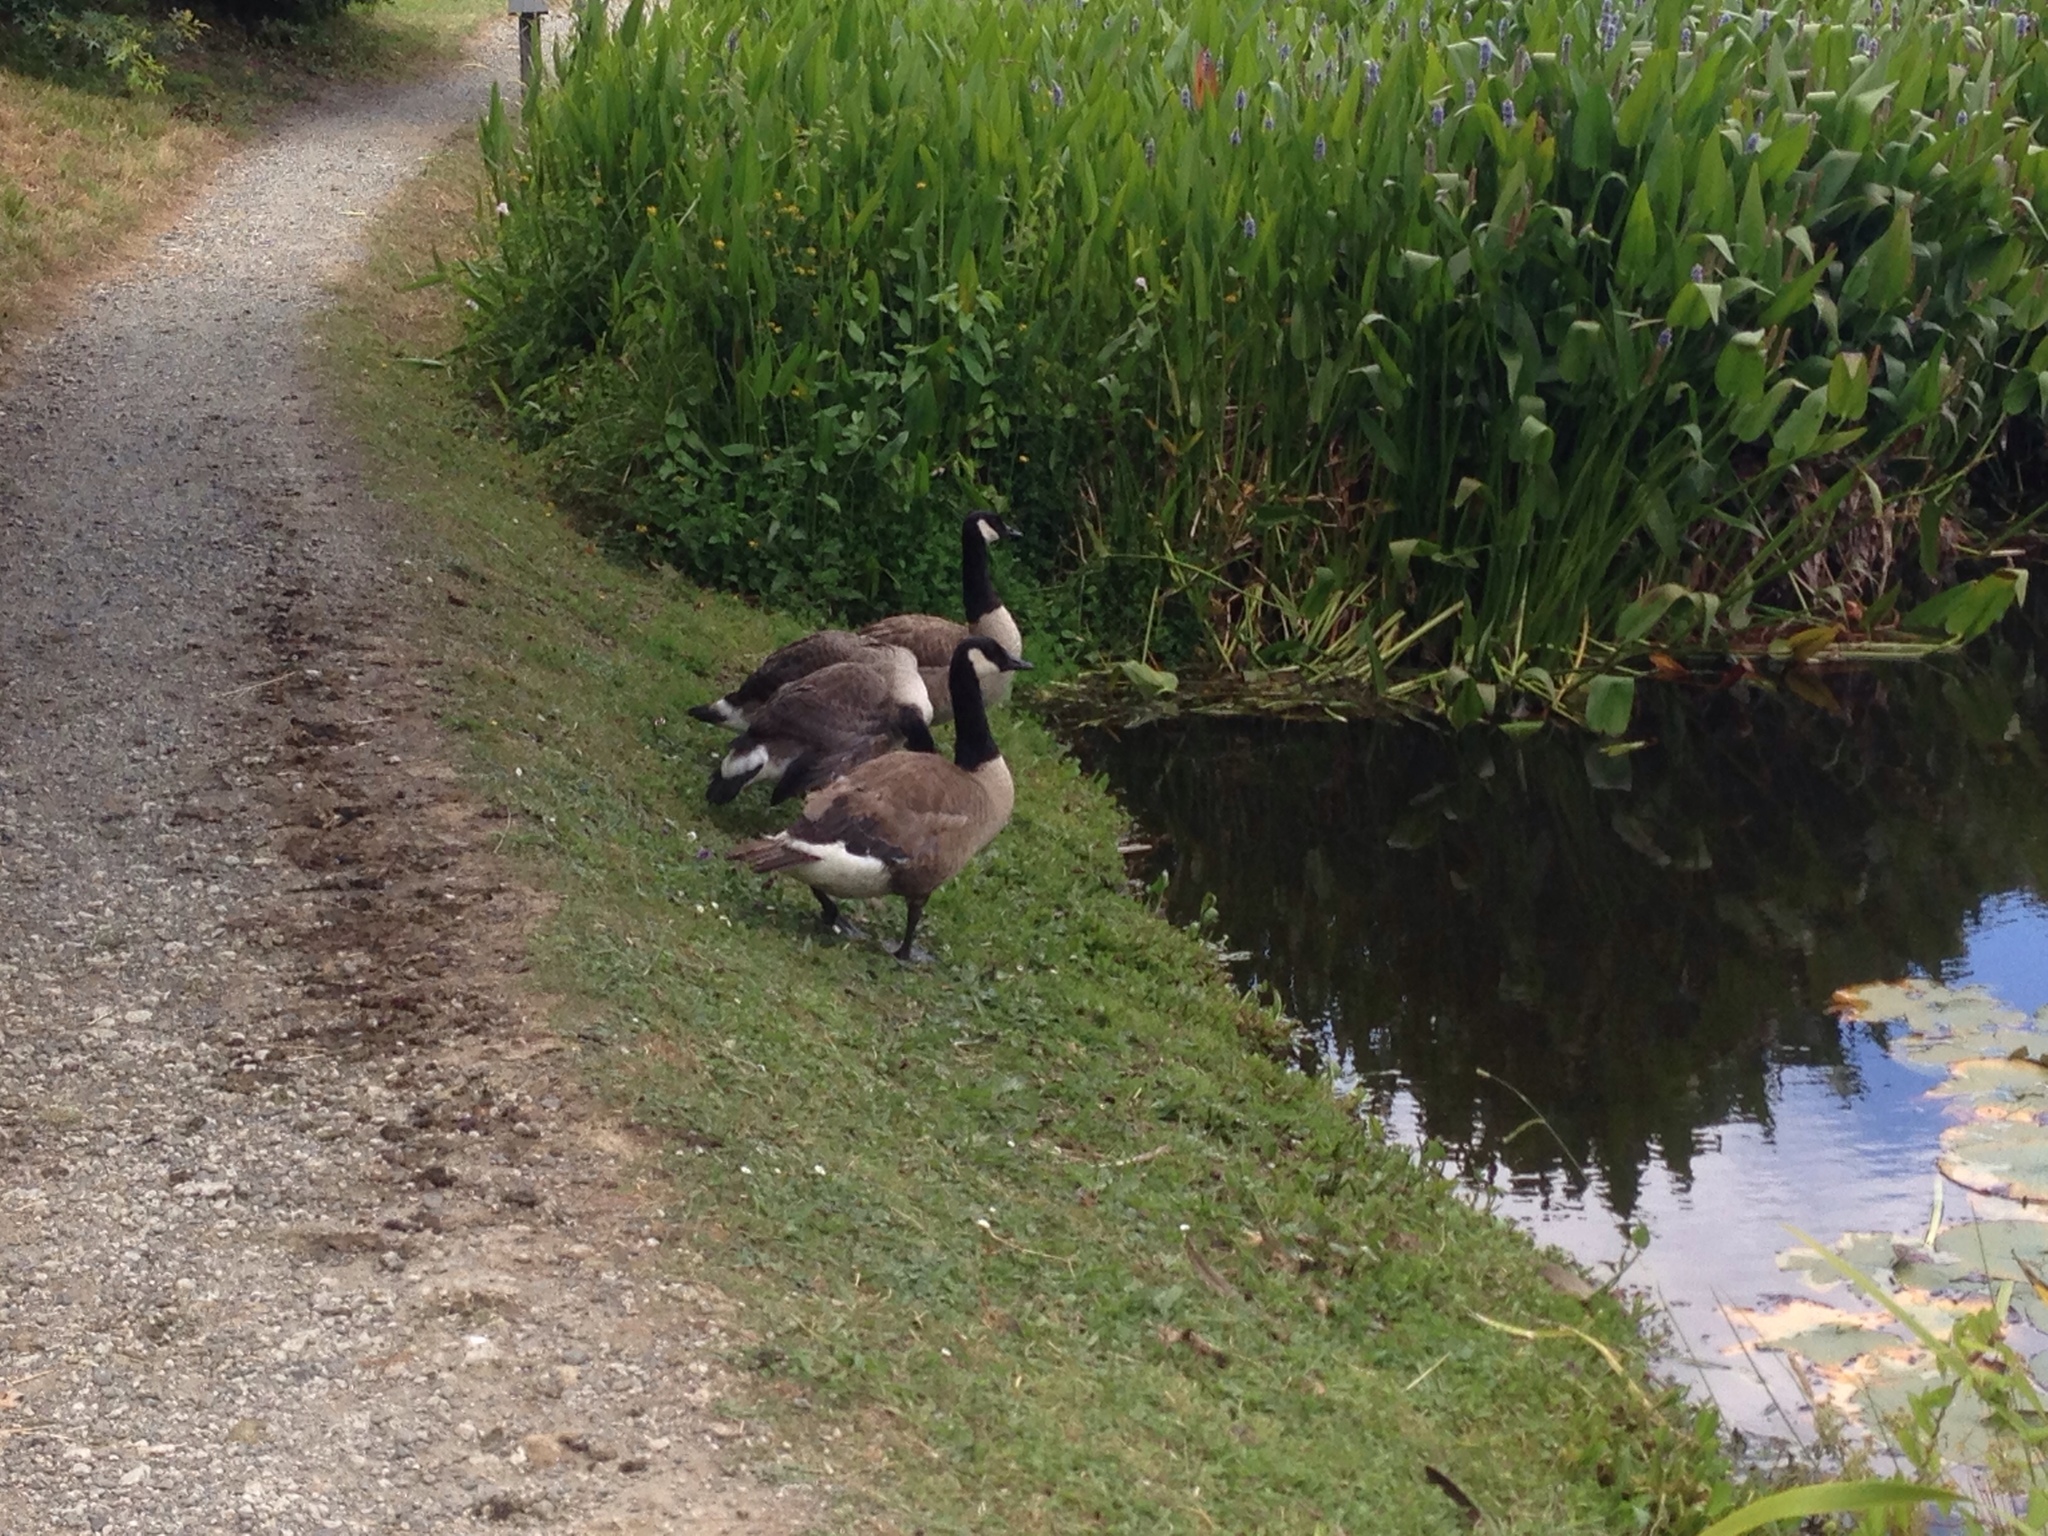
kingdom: Animalia
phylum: Chordata
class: Aves
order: Anseriformes
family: Anatidae
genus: Branta
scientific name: Branta canadensis
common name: Canada goose
